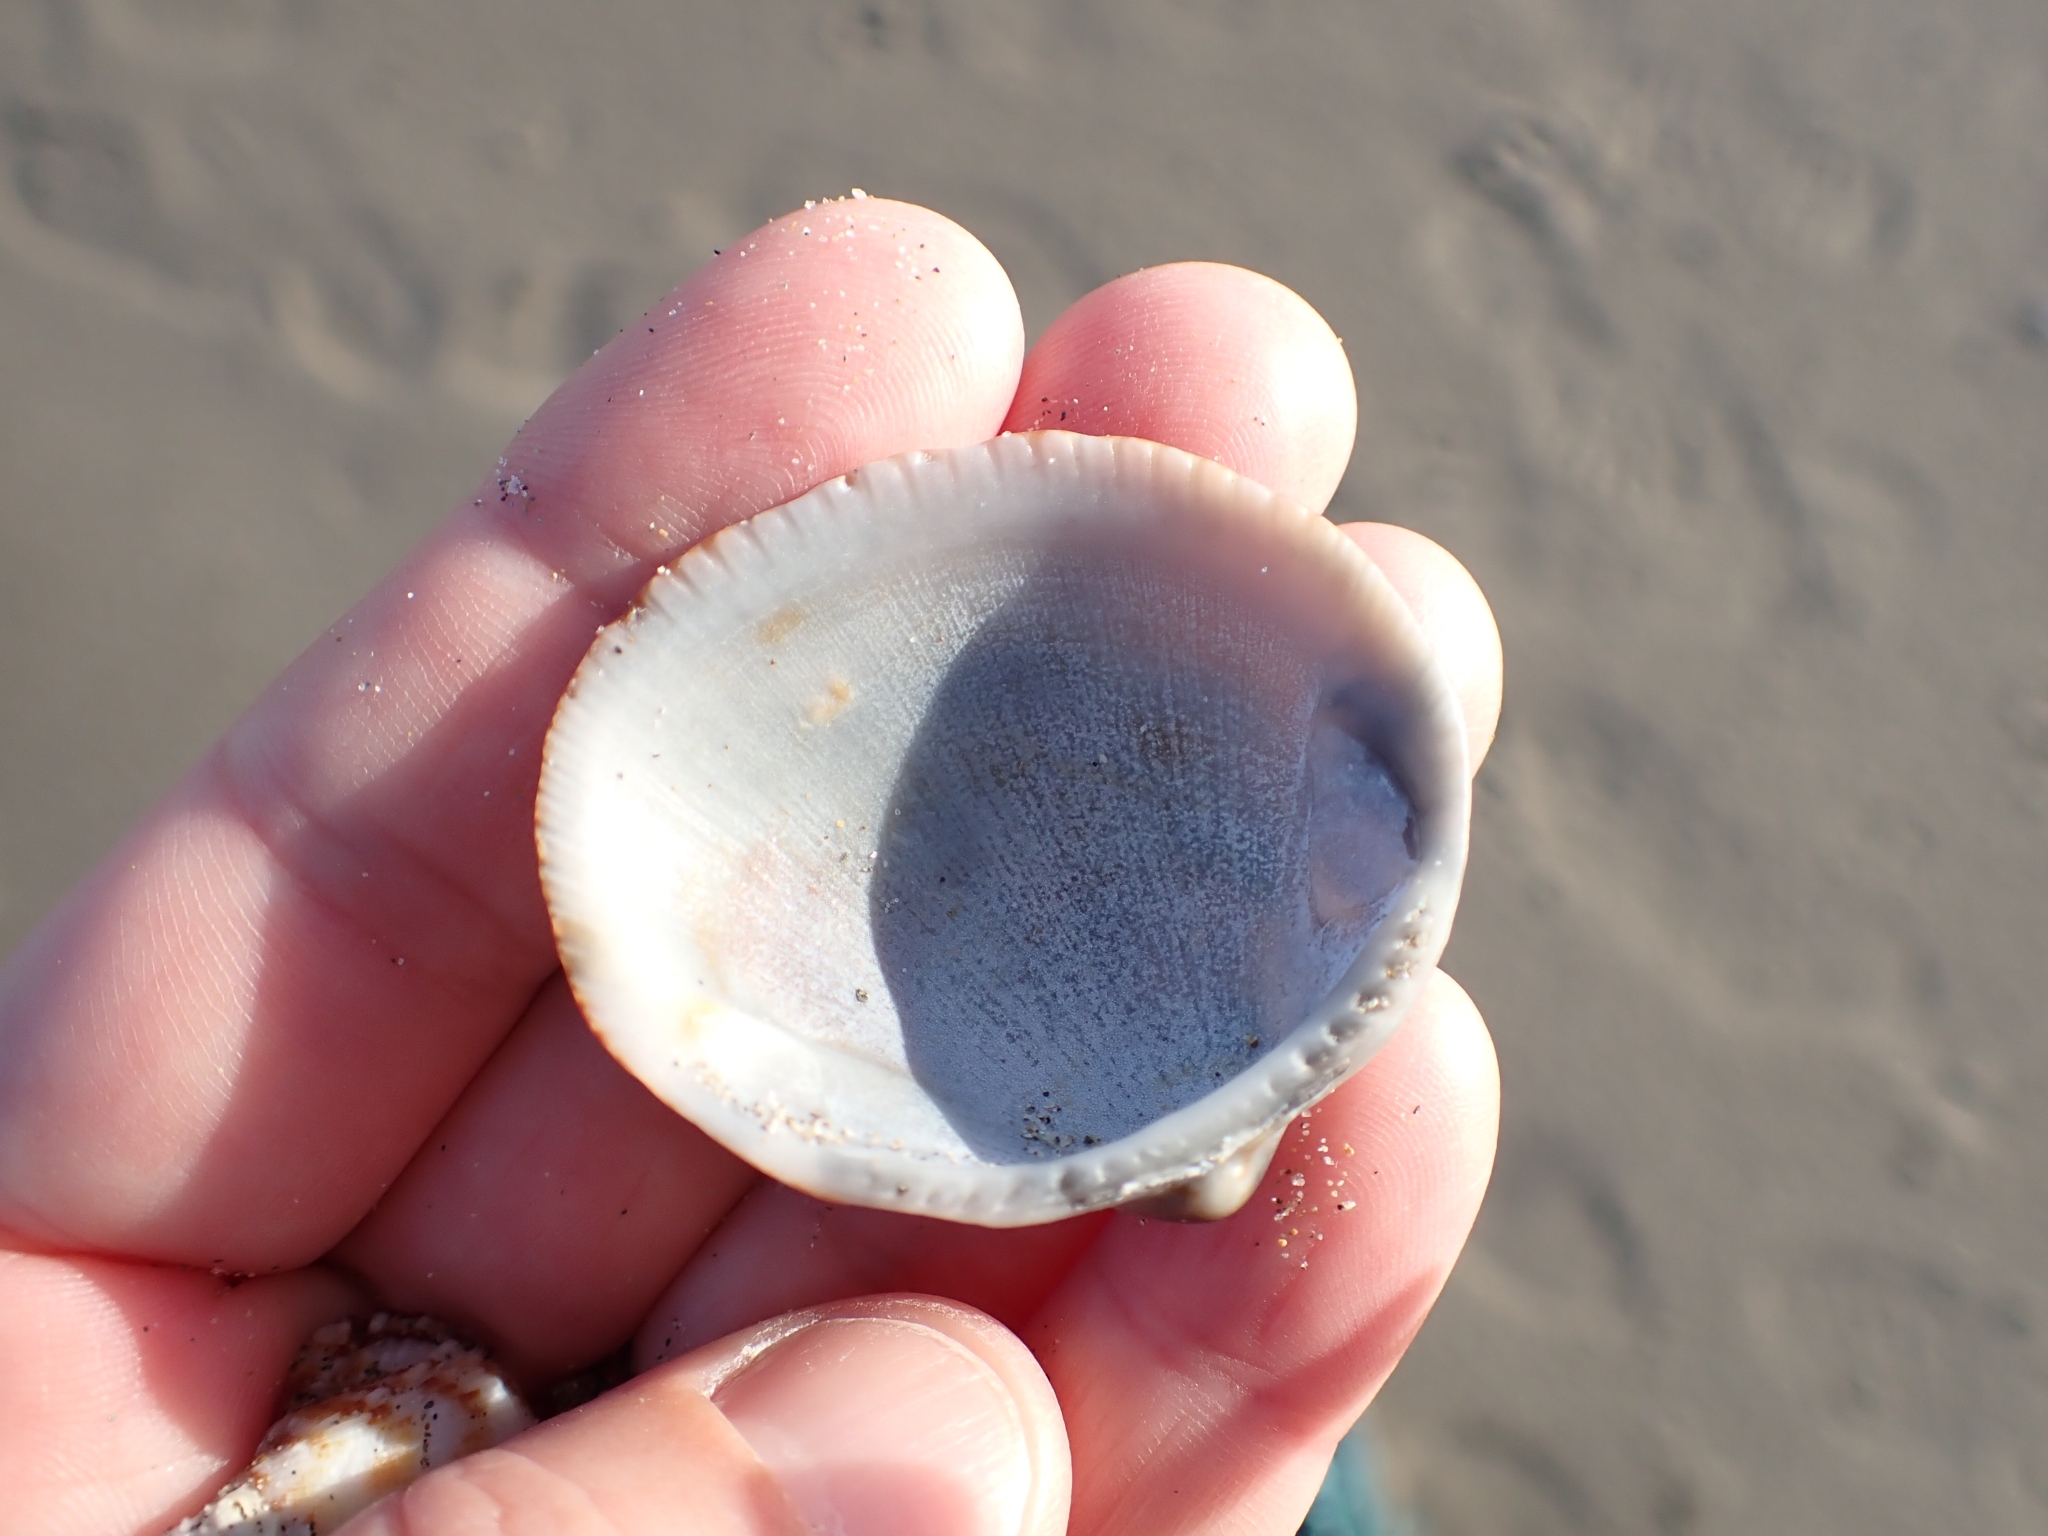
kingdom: Animalia
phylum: Mollusca
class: Bivalvia
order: Arcida
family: Glycymerididae
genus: Glycymeris
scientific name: Glycymeris nummaria
